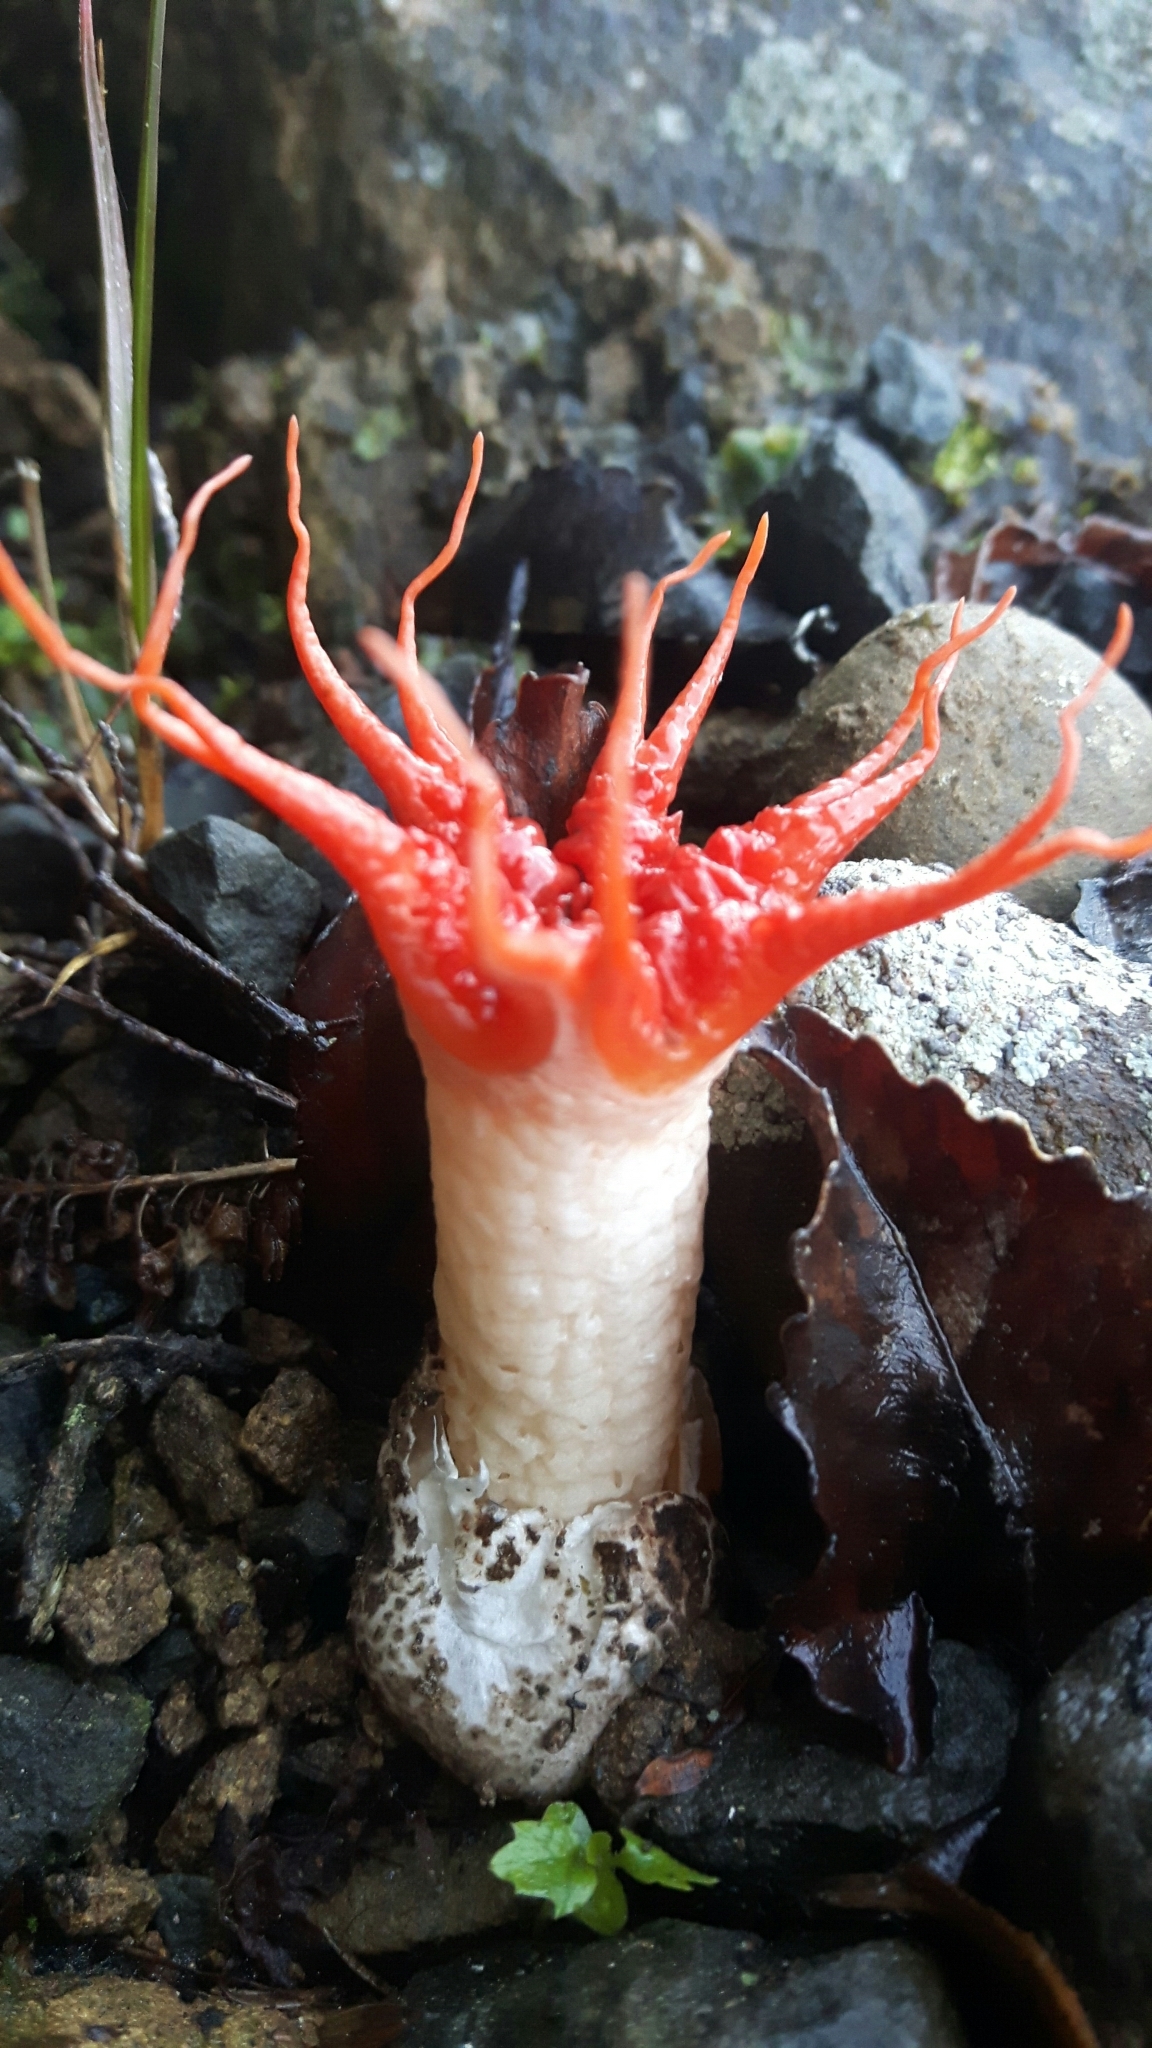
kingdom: Fungi
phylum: Basidiomycota
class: Agaricomycetes
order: Phallales
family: Phallaceae
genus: Aseroe
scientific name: Aseroe rubra
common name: Starfish fungus
